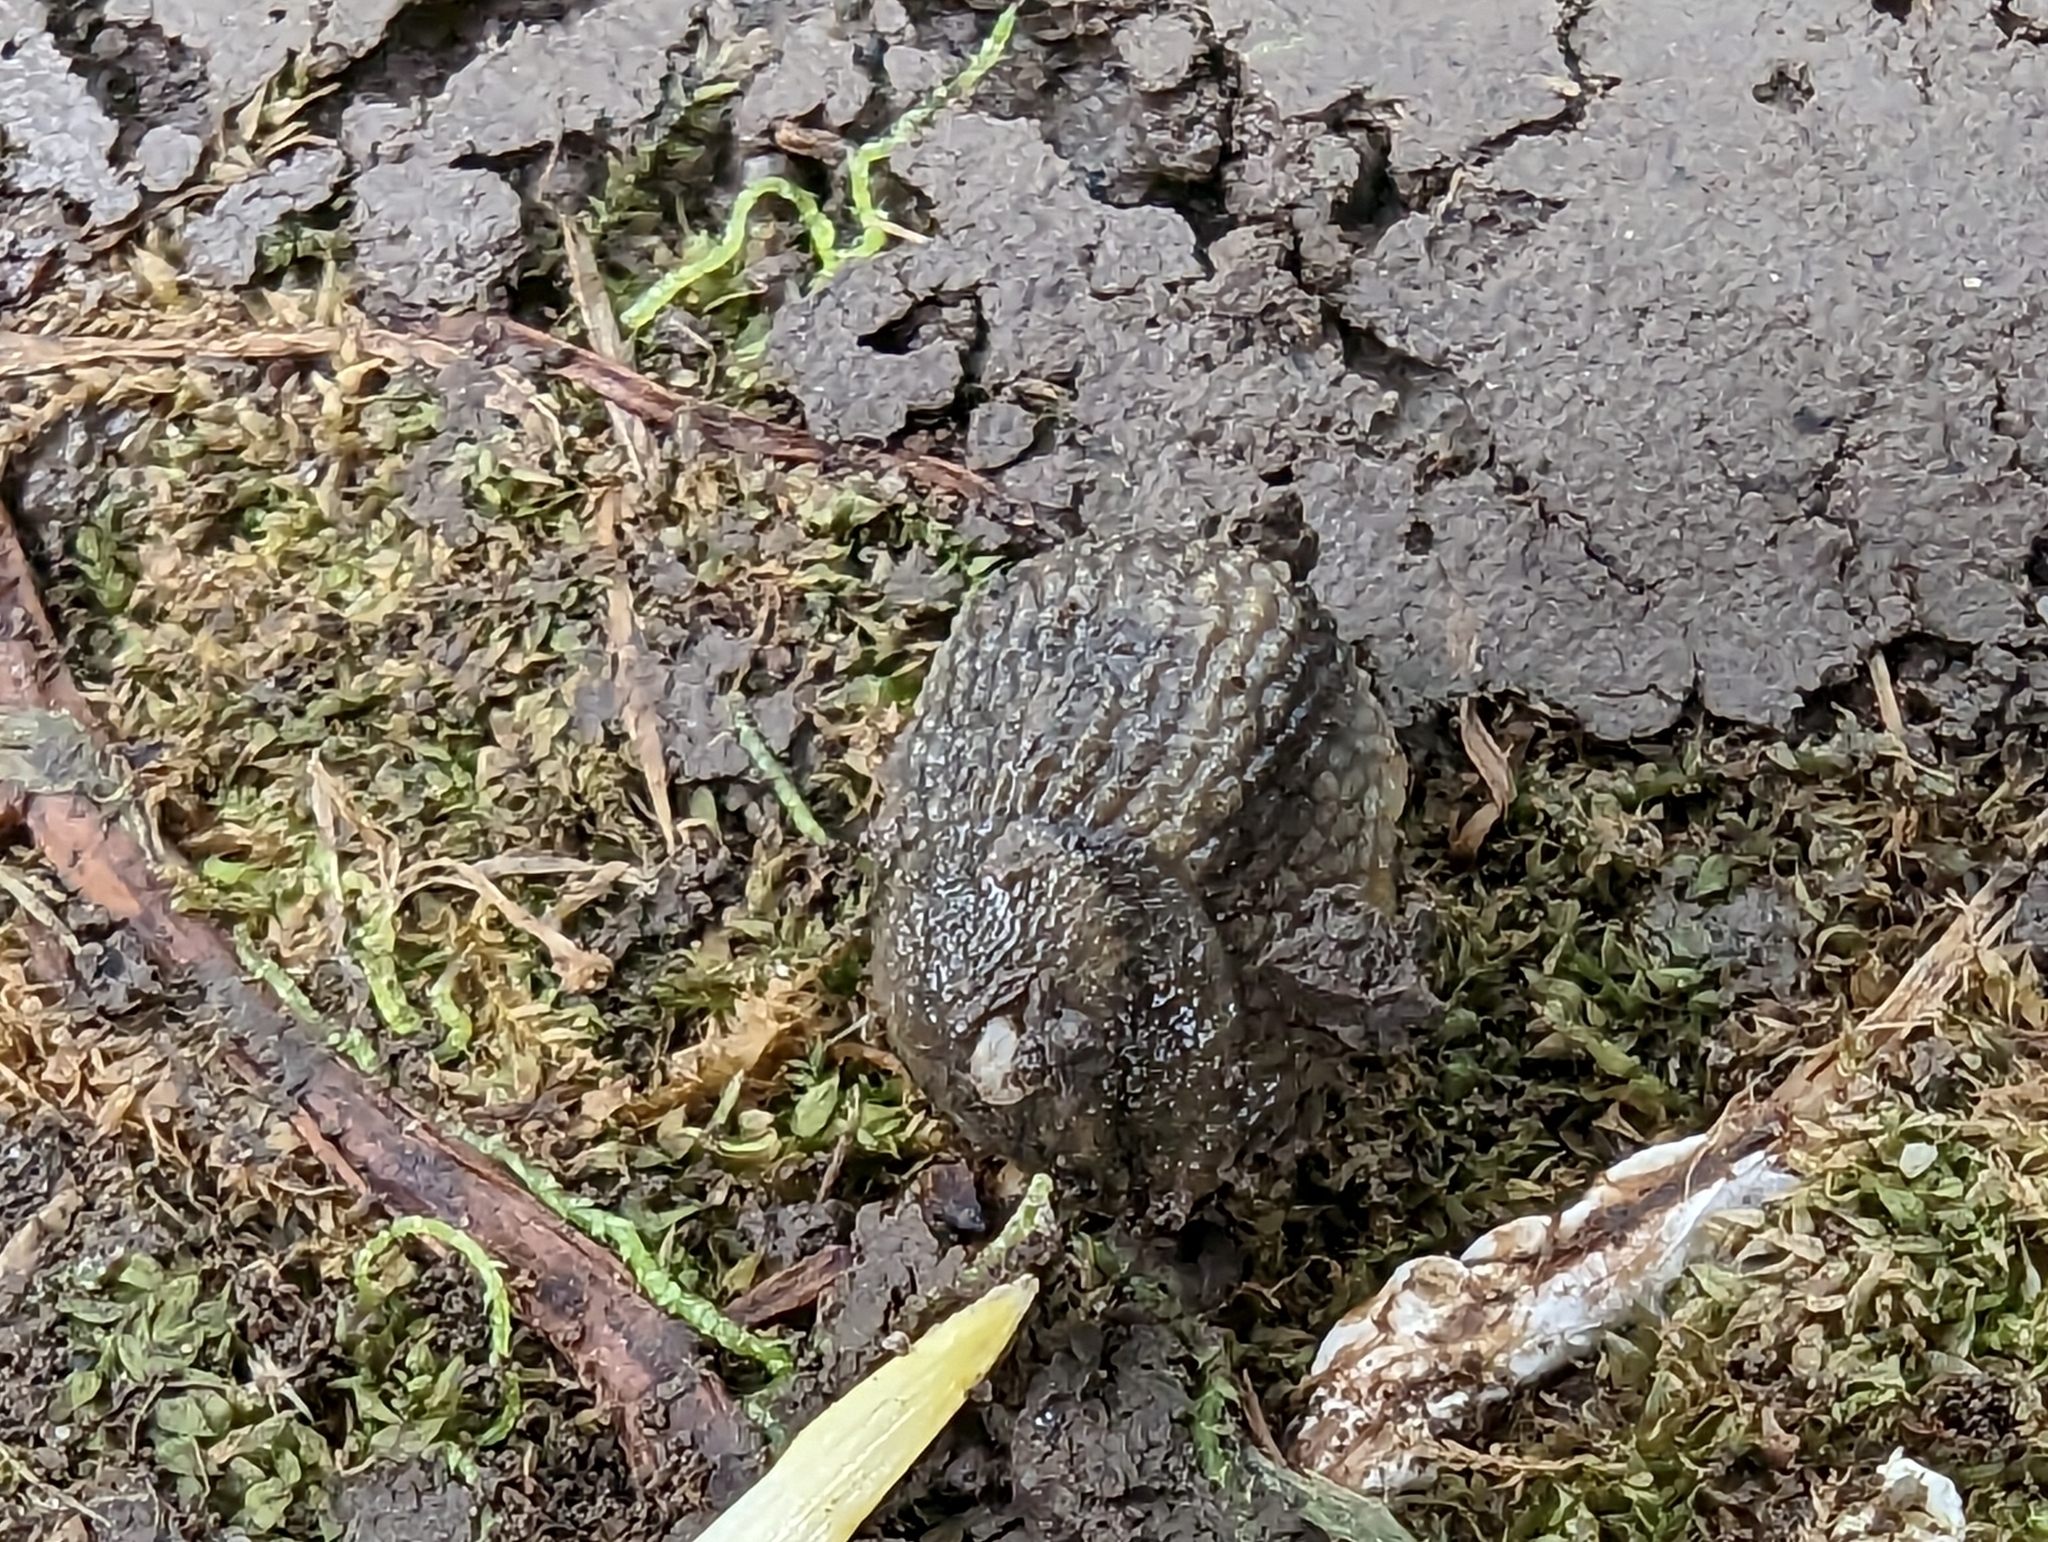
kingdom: Animalia
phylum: Mollusca
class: Gastropoda
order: Stylommatophora
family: Arionidae
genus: Arion
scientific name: Arion
